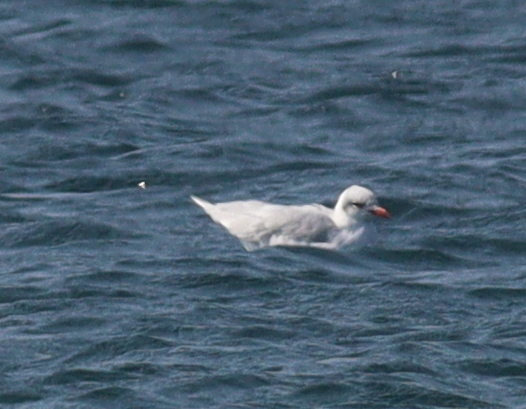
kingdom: Animalia
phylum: Chordata
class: Aves
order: Charadriiformes
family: Laridae
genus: Ichthyaetus
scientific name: Ichthyaetus melanocephalus
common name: Mediterranean gull
